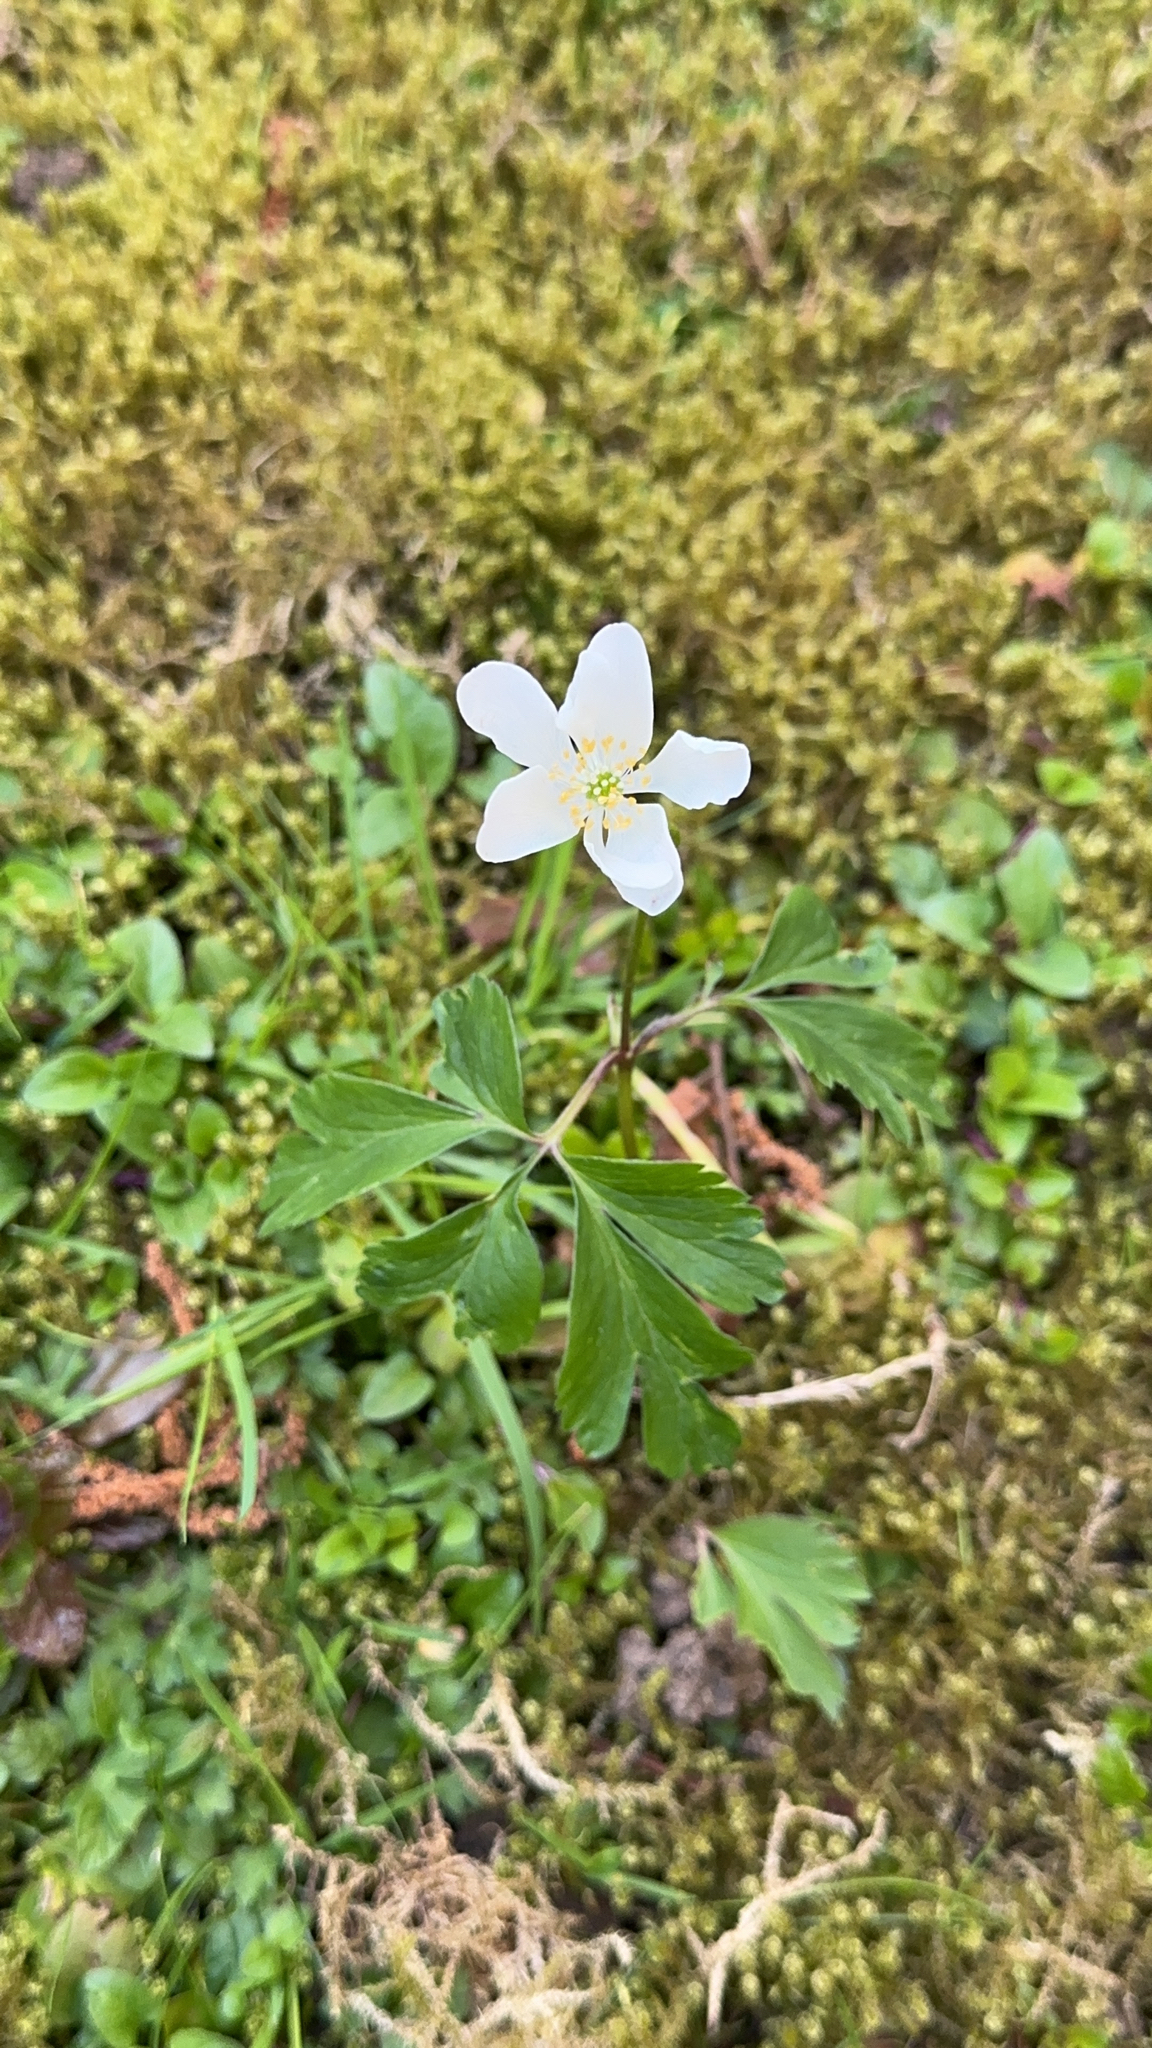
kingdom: Plantae
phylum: Tracheophyta
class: Magnoliopsida
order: Ranunculales
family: Ranunculaceae
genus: Anemone
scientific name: Anemone nemorosa
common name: Wood anemone
